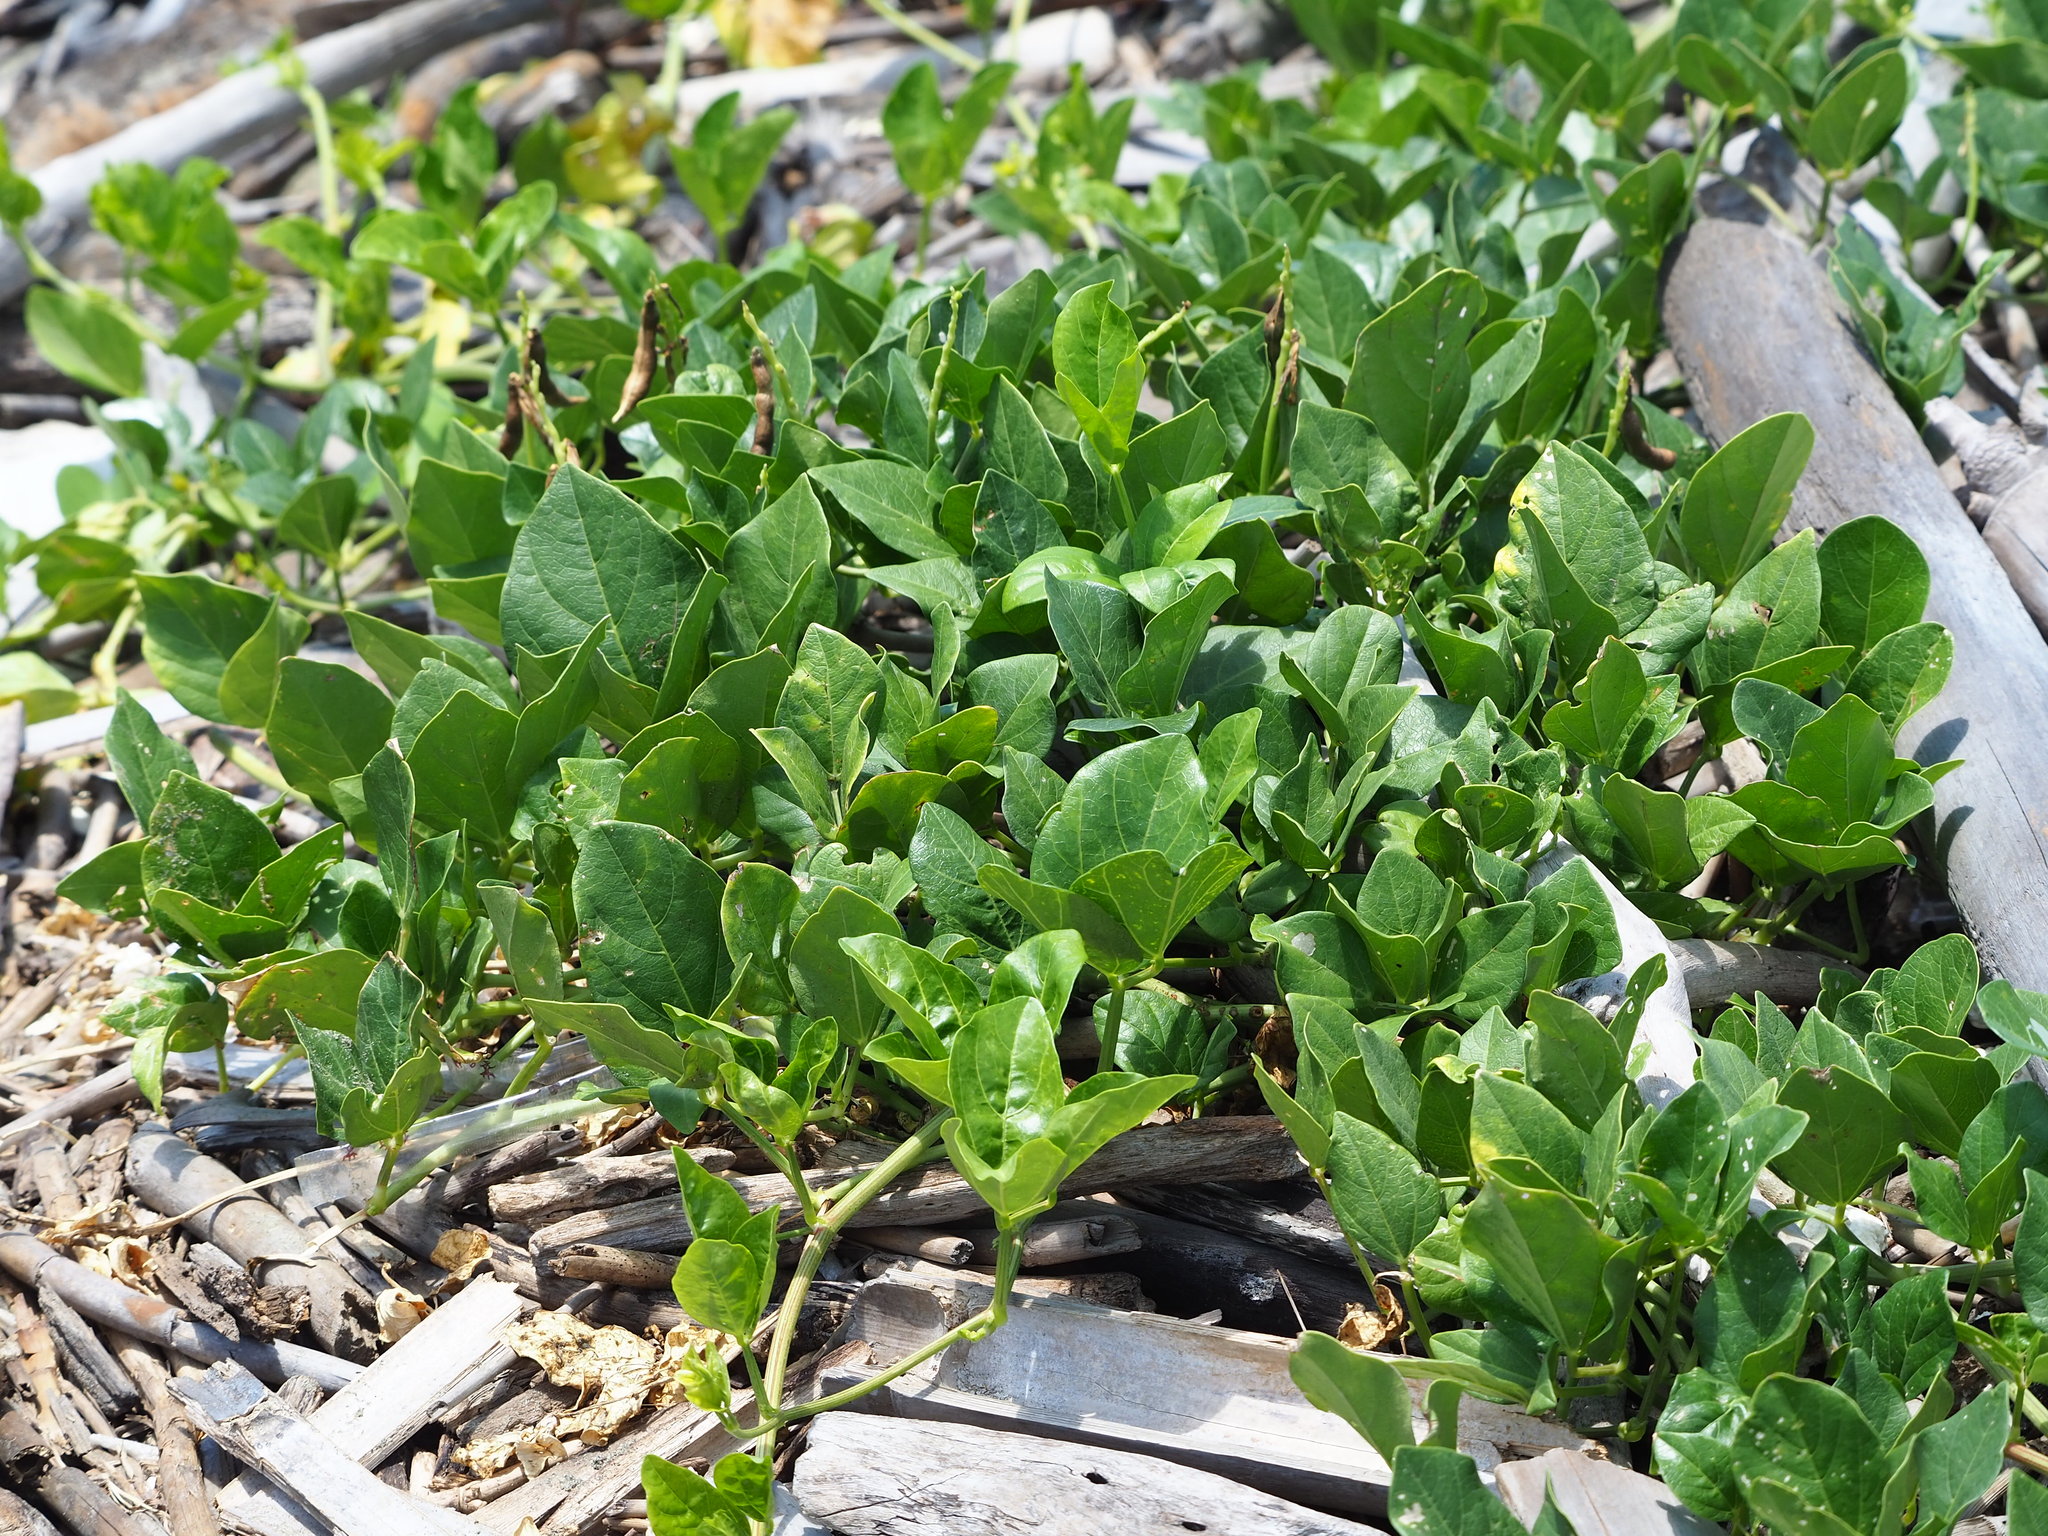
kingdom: Plantae
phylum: Tracheophyta
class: Magnoliopsida
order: Fabales
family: Fabaceae
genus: Vigna
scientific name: Vigna marina
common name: Dune-bean
